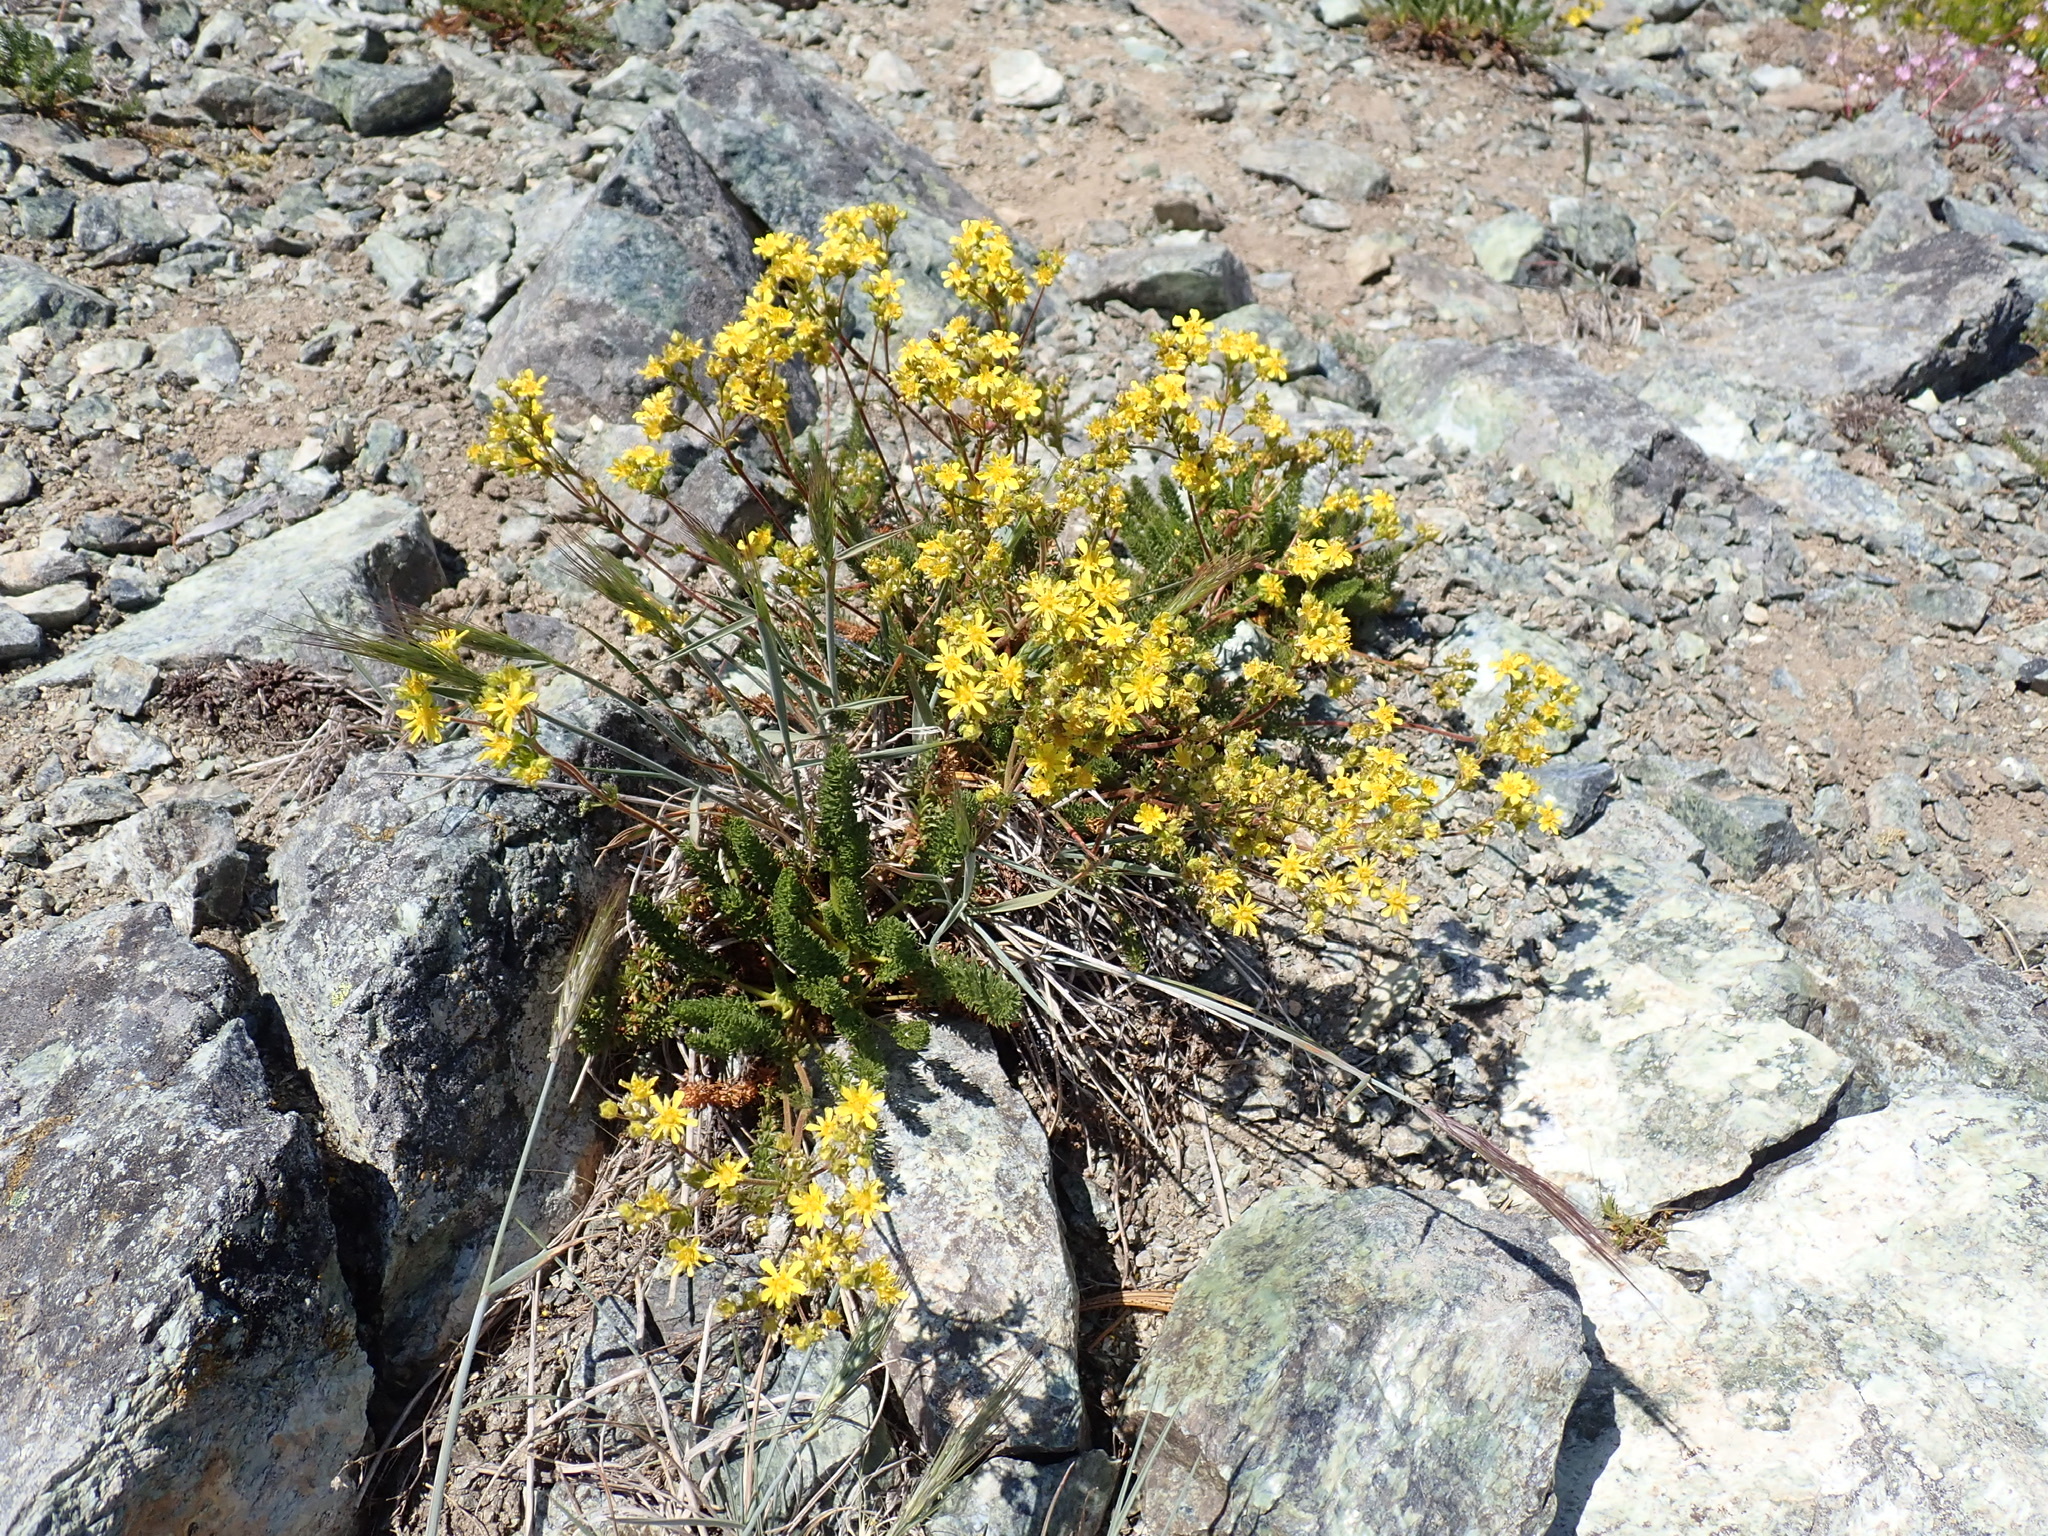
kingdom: Plantae
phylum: Tracheophyta
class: Magnoliopsida
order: Rosales
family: Rosaceae
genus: Potentilla
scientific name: Potentilla tweedyi
